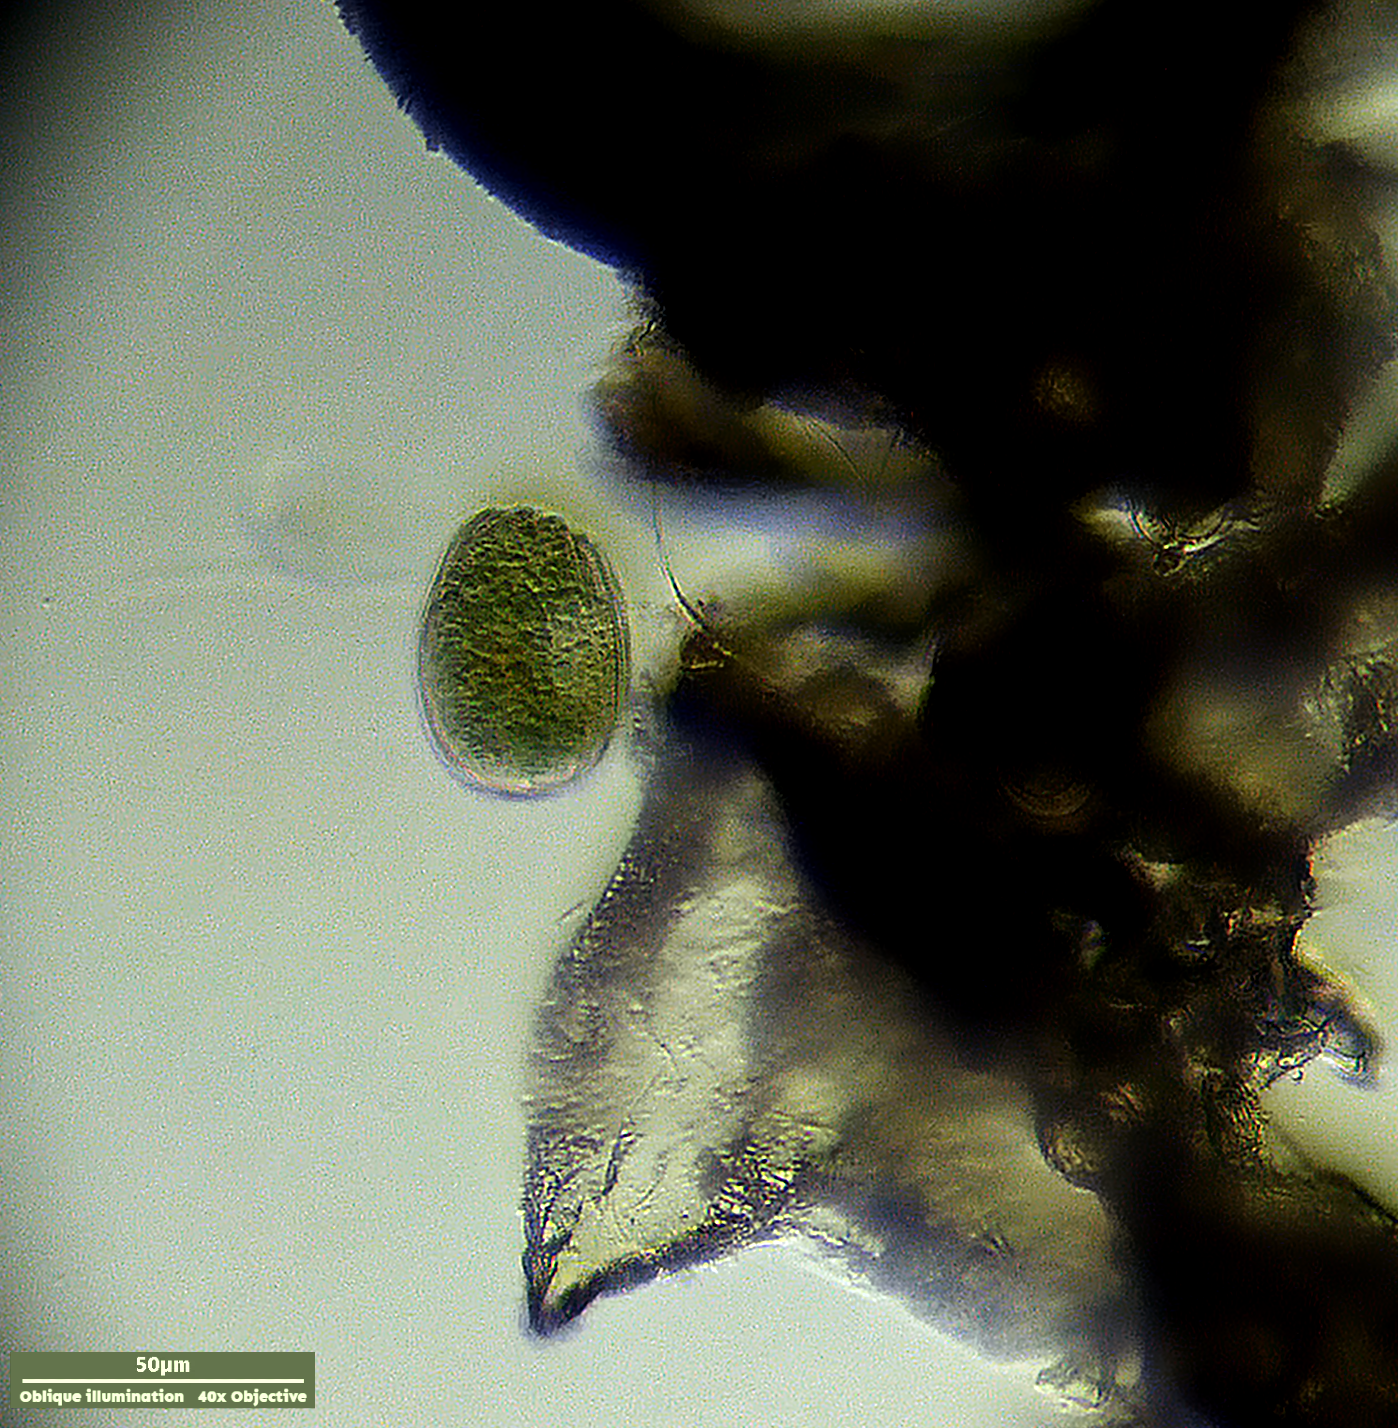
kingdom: Chromista
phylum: Ciliophora
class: Nassophorea
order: Nassulida
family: Pseudomicrothoracidae
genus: Pseudomicrothorax
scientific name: Pseudomicrothorax agilis
